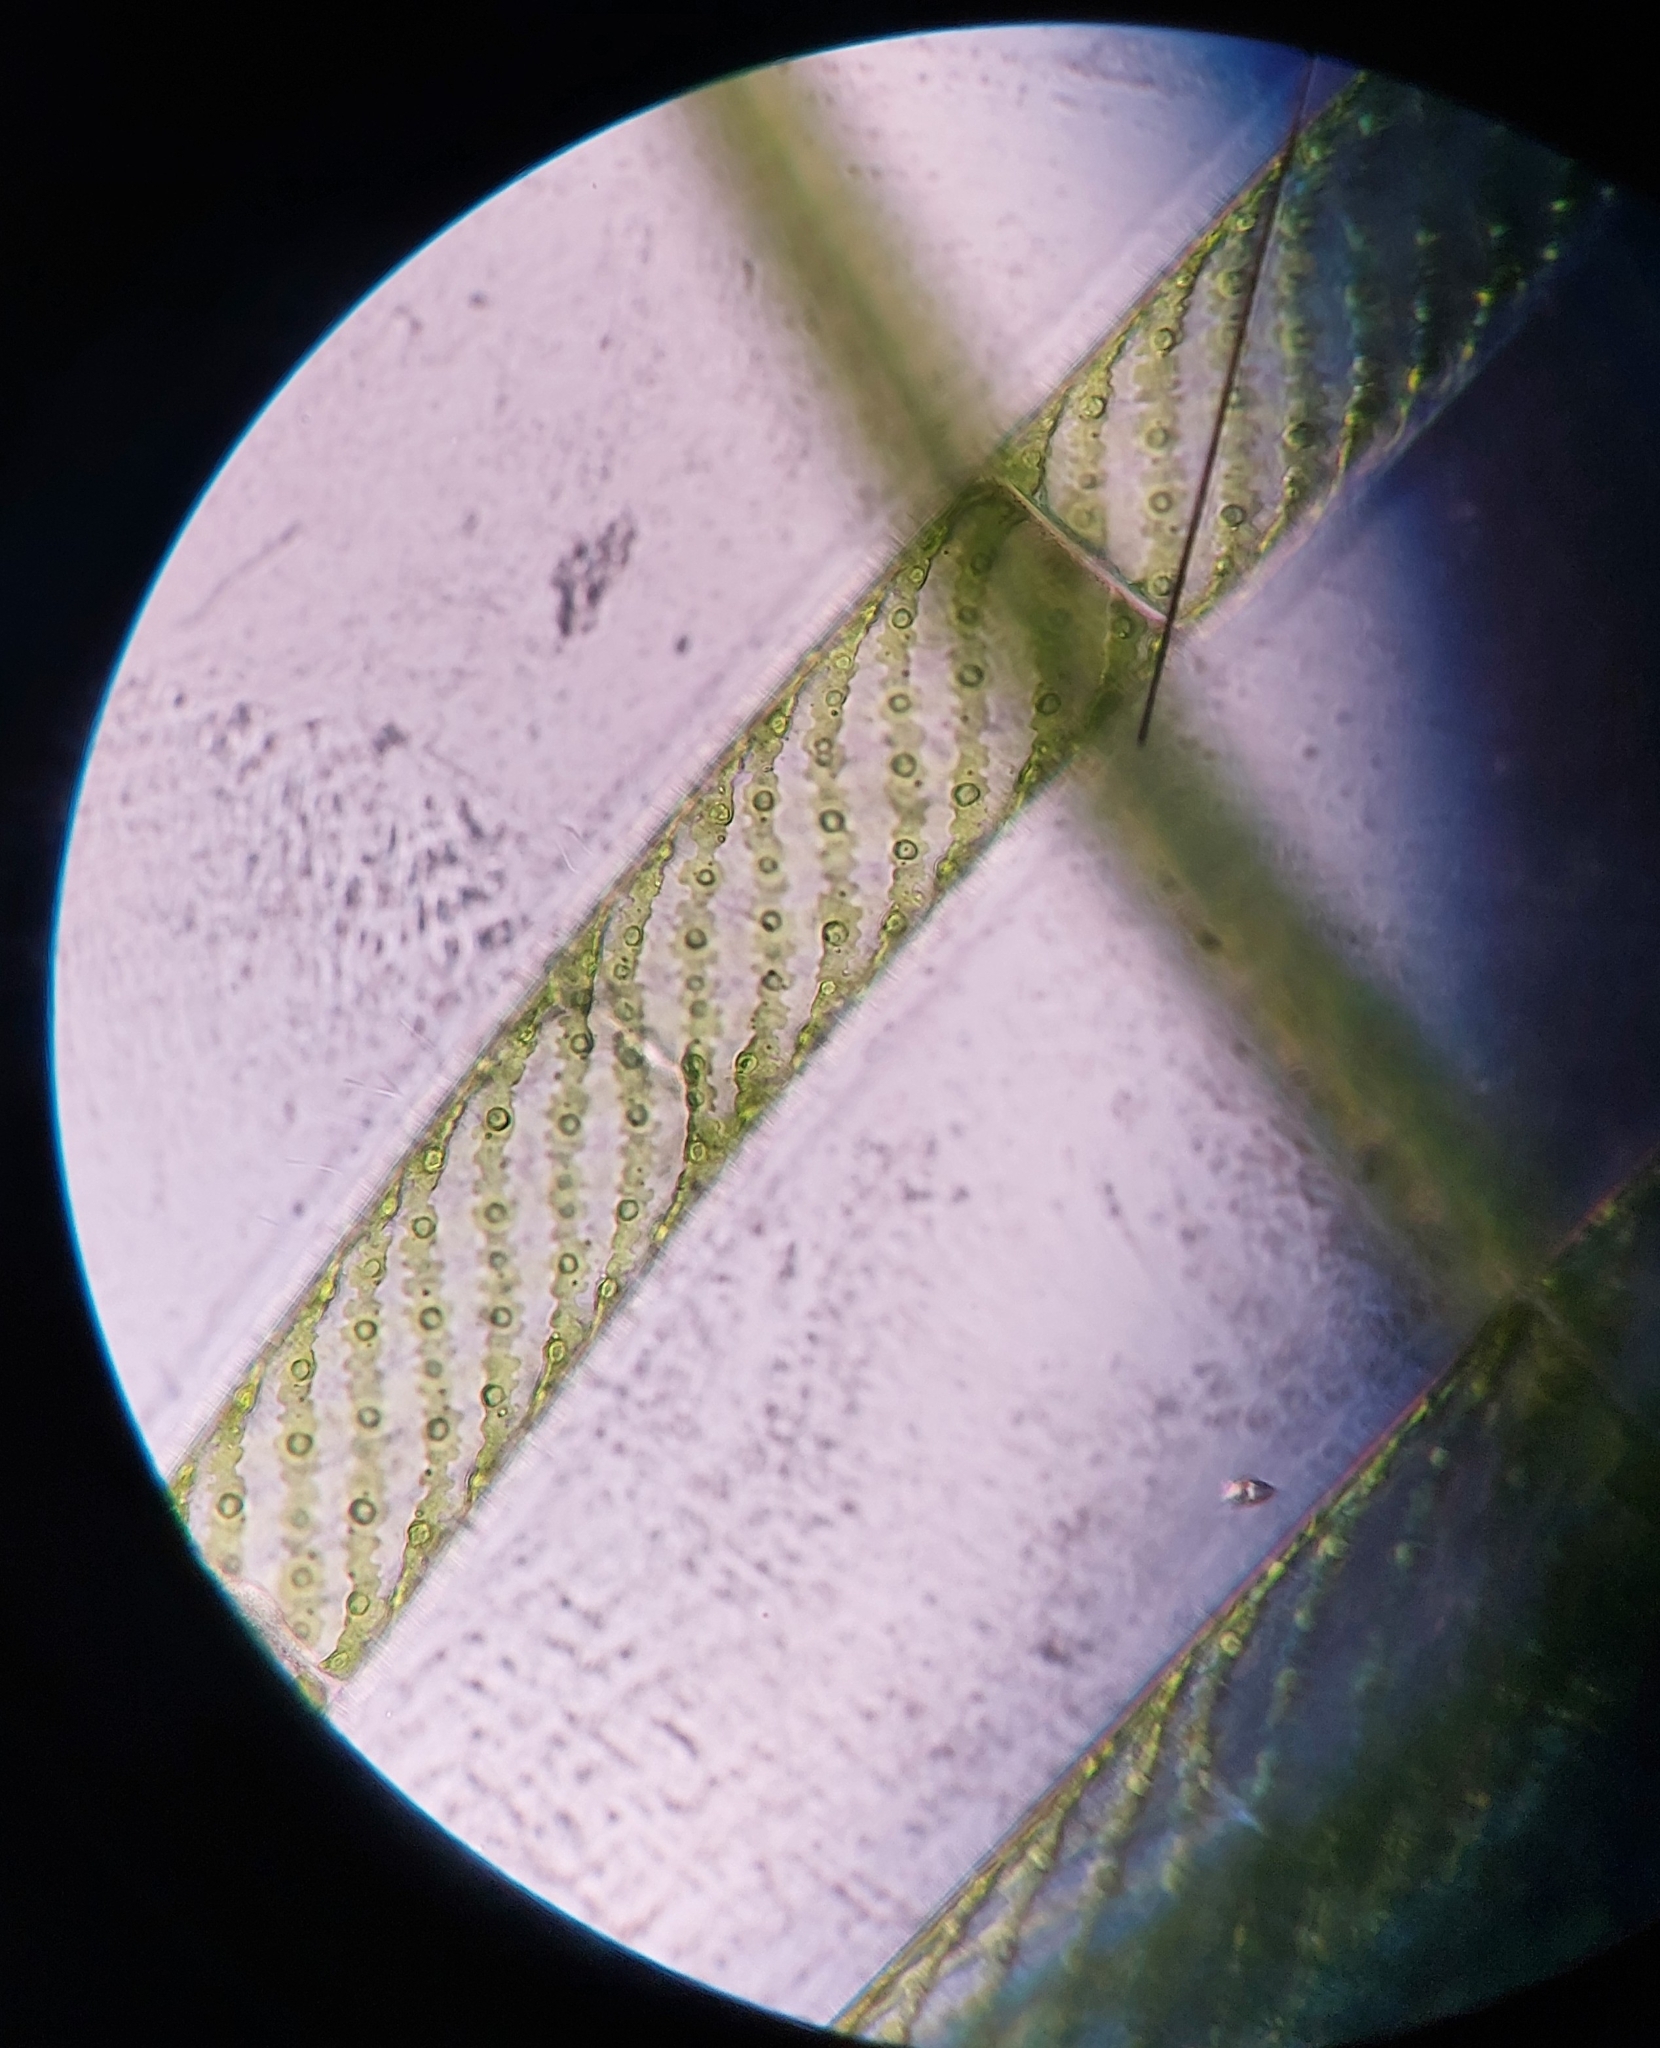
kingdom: Plantae
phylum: Charophyta
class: Zygnematophyceae
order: Zygnematales
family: Zygnemataceae
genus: Spirogyra
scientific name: Spirogyra
